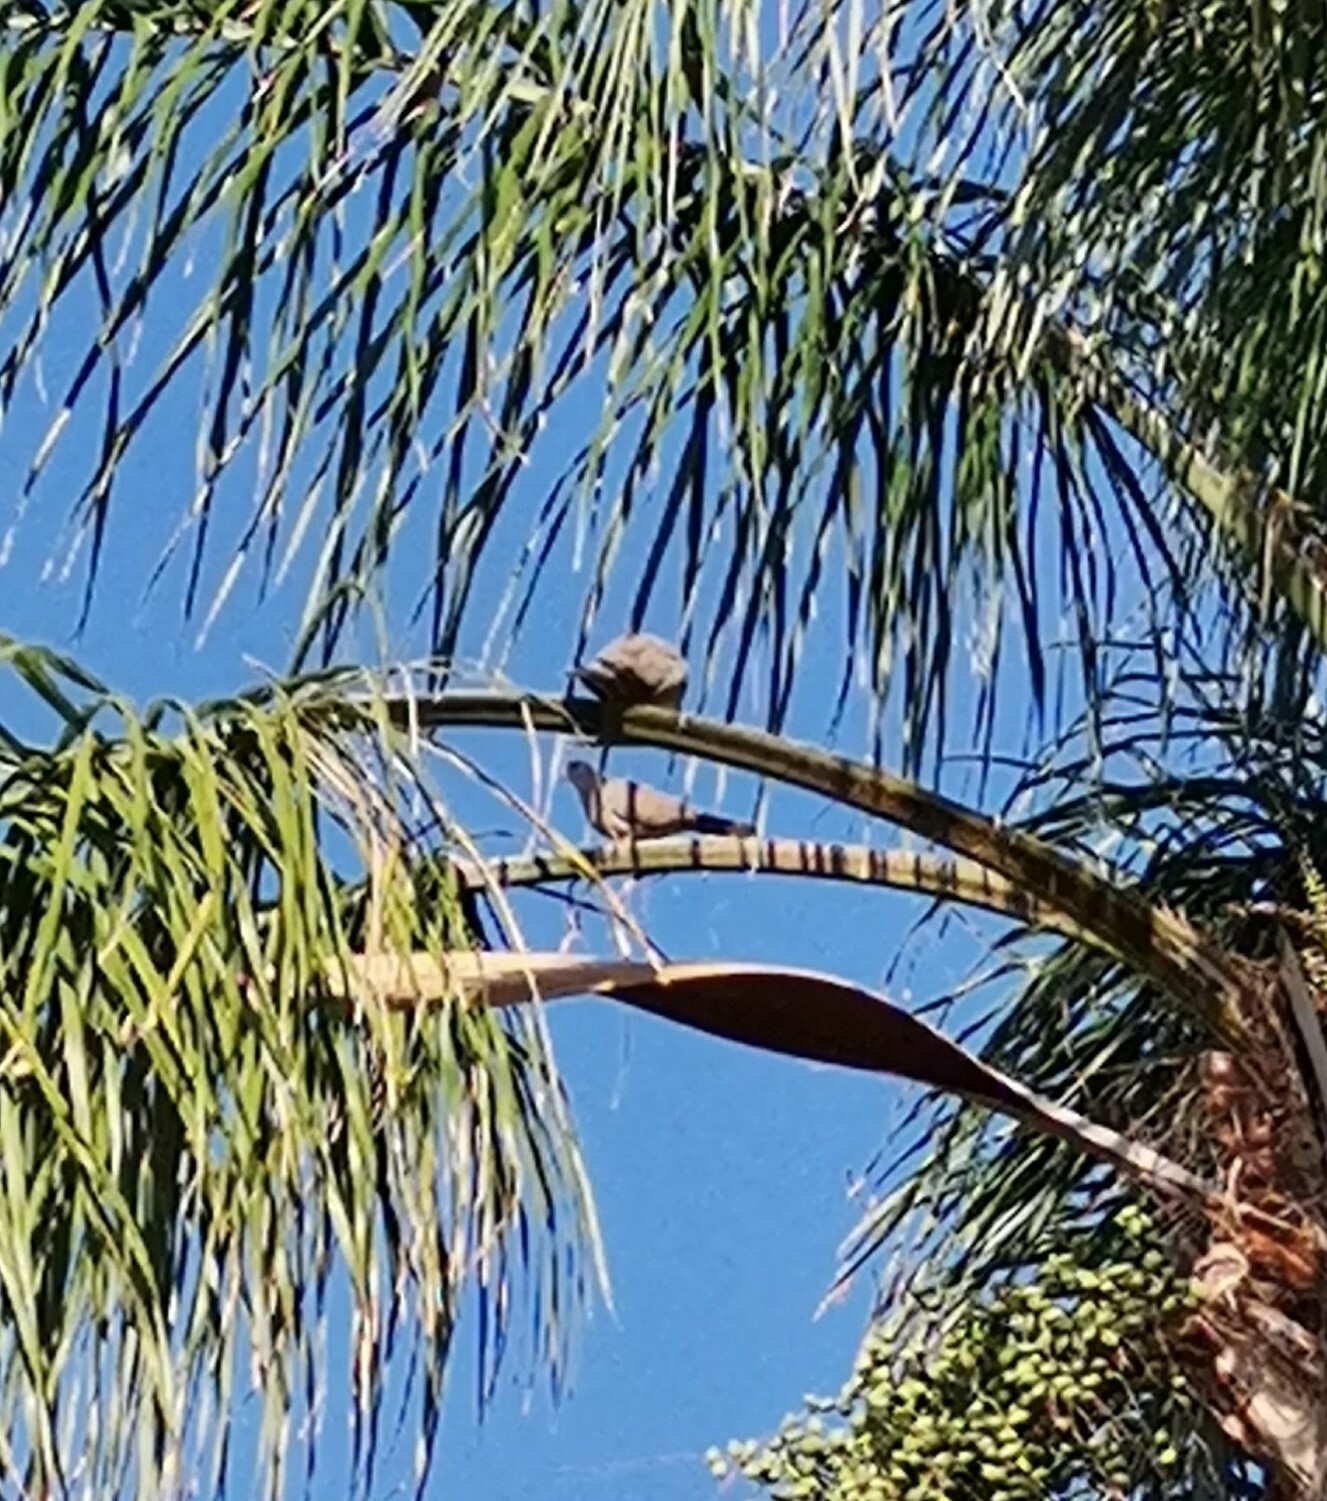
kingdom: Animalia
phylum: Chordata
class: Aves
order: Columbiformes
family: Columbidae
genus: Streptopelia
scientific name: Streptopelia decaocto
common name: Eurasian collared dove
